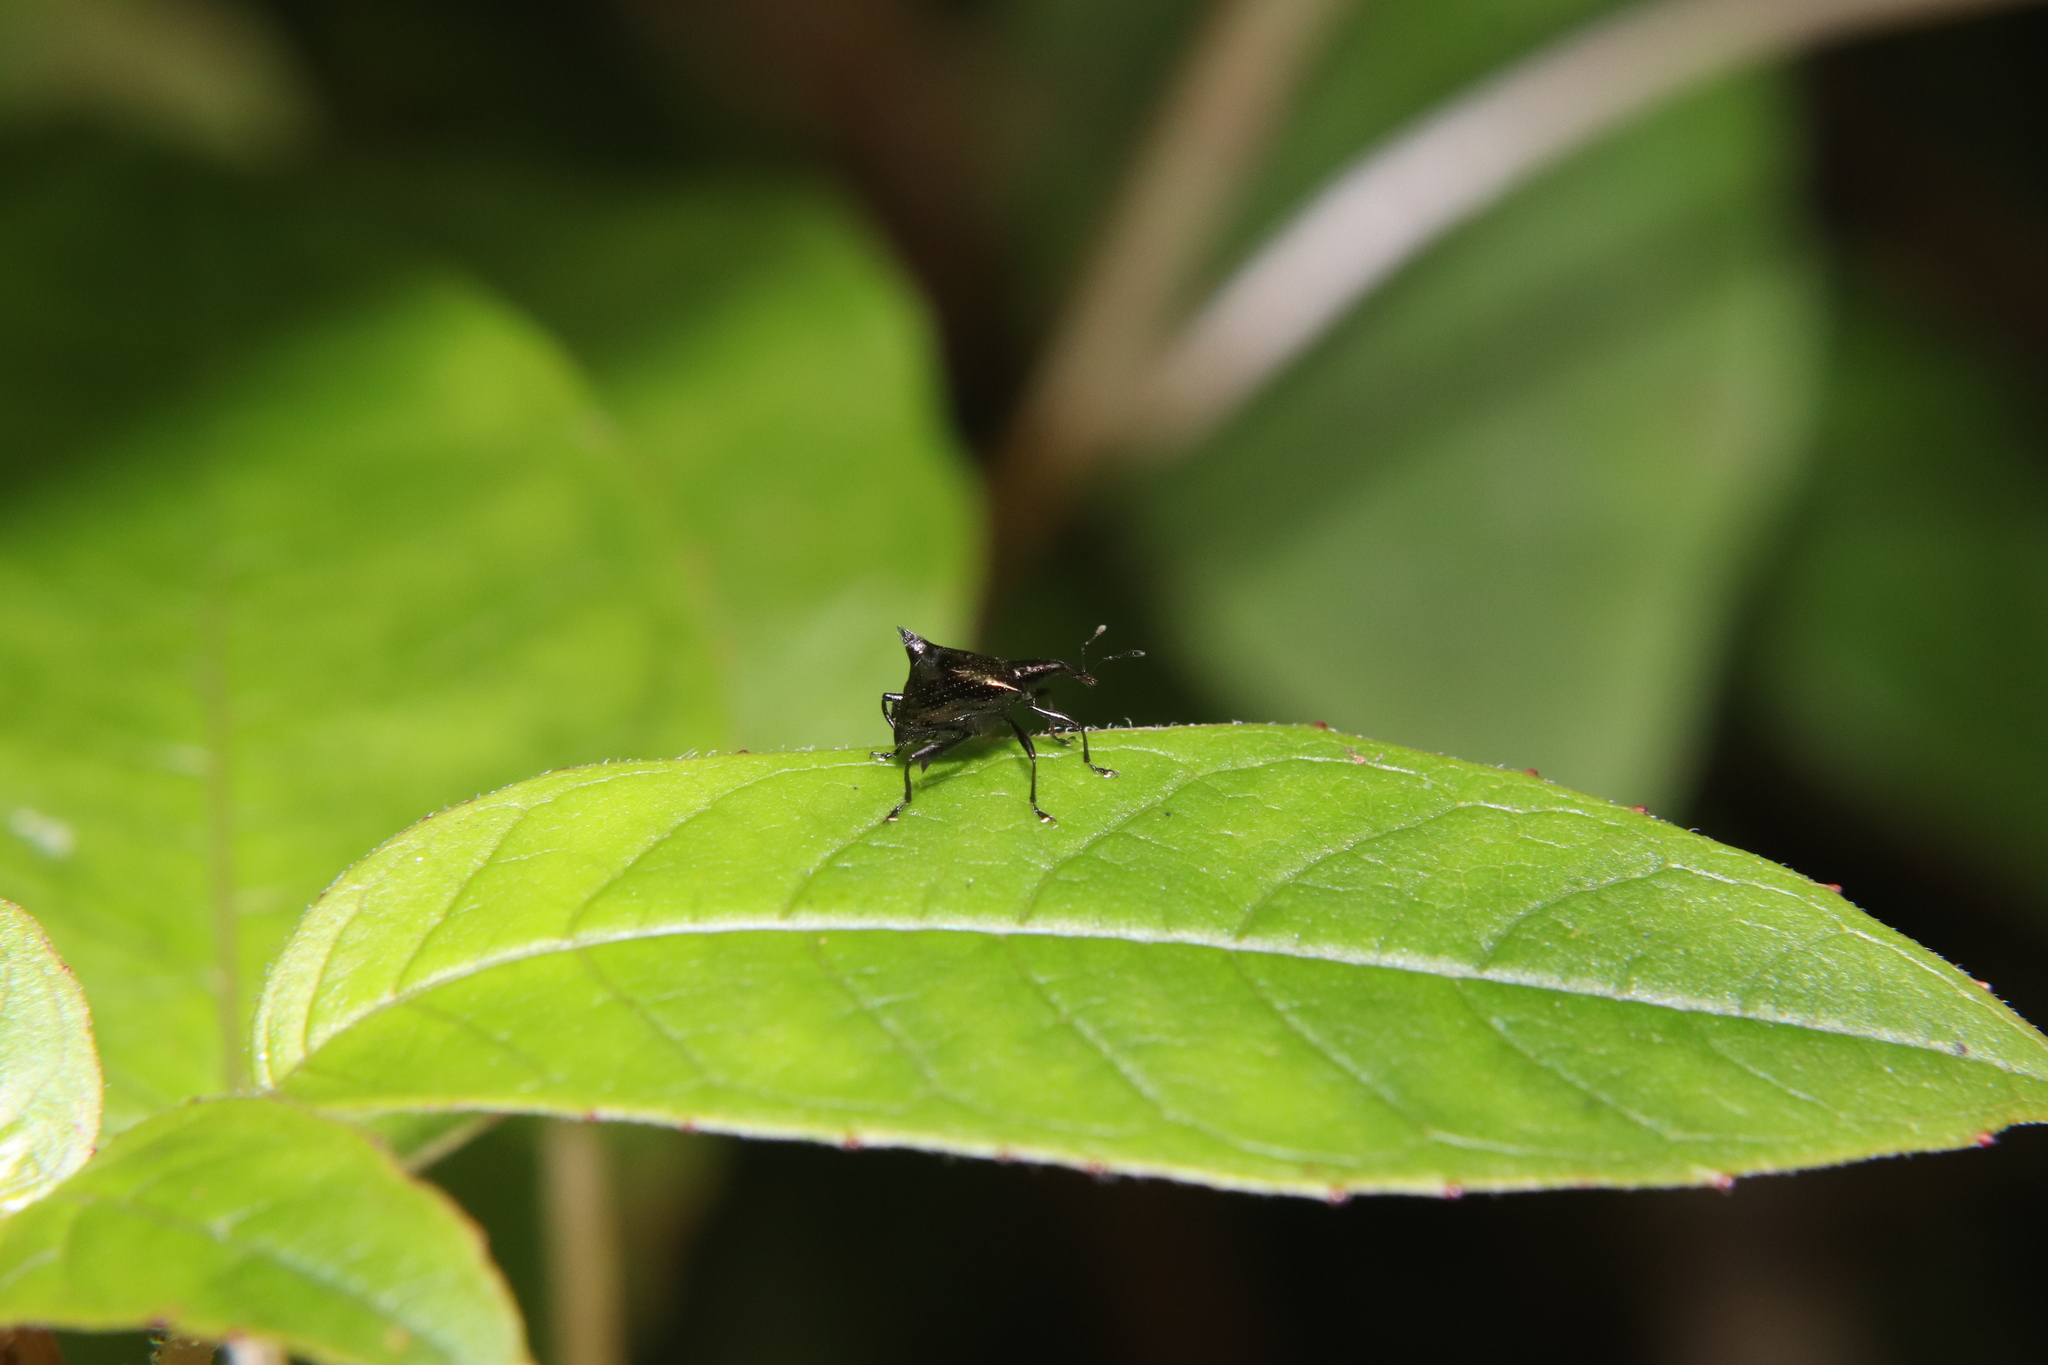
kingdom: Animalia
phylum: Arthropoda
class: Insecta
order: Coleoptera
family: Curculionidae
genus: Scolopterus
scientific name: Scolopterus penicillatus
